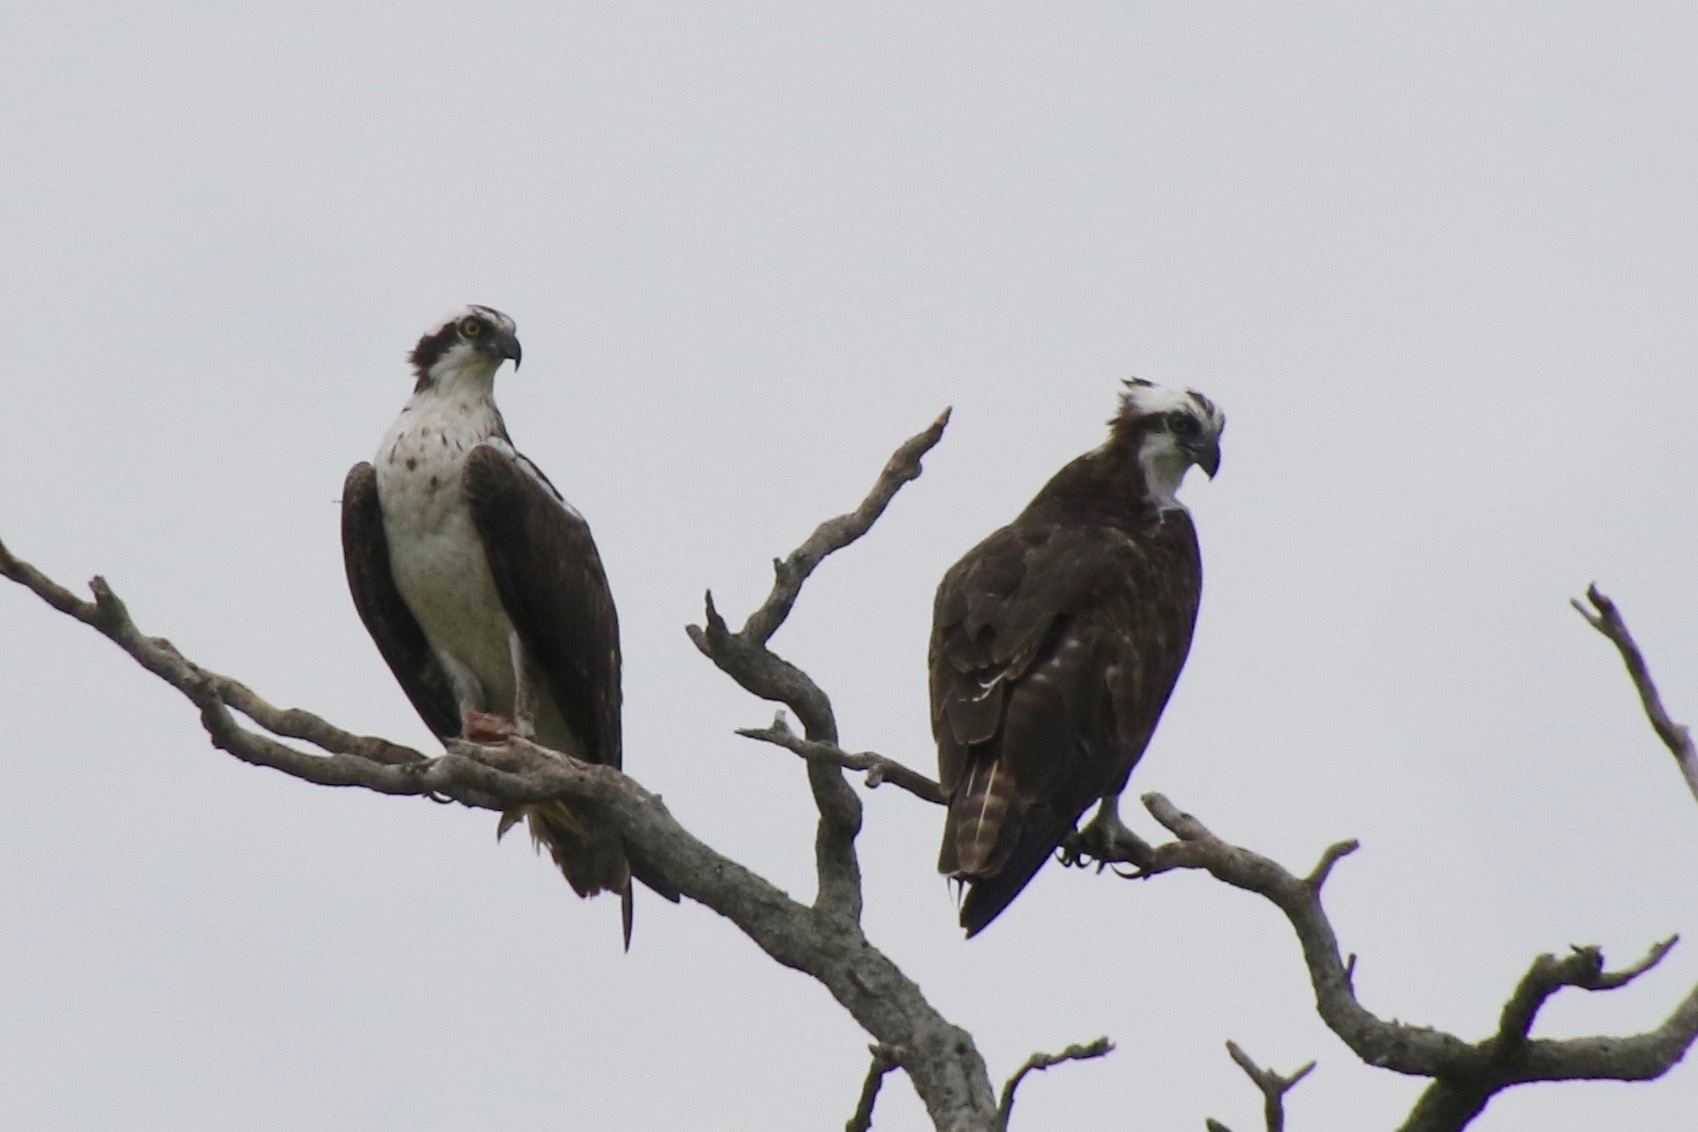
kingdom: Animalia
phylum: Chordata
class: Aves
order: Accipitriformes
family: Pandionidae
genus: Pandion
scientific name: Pandion haliaetus
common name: Osprey
